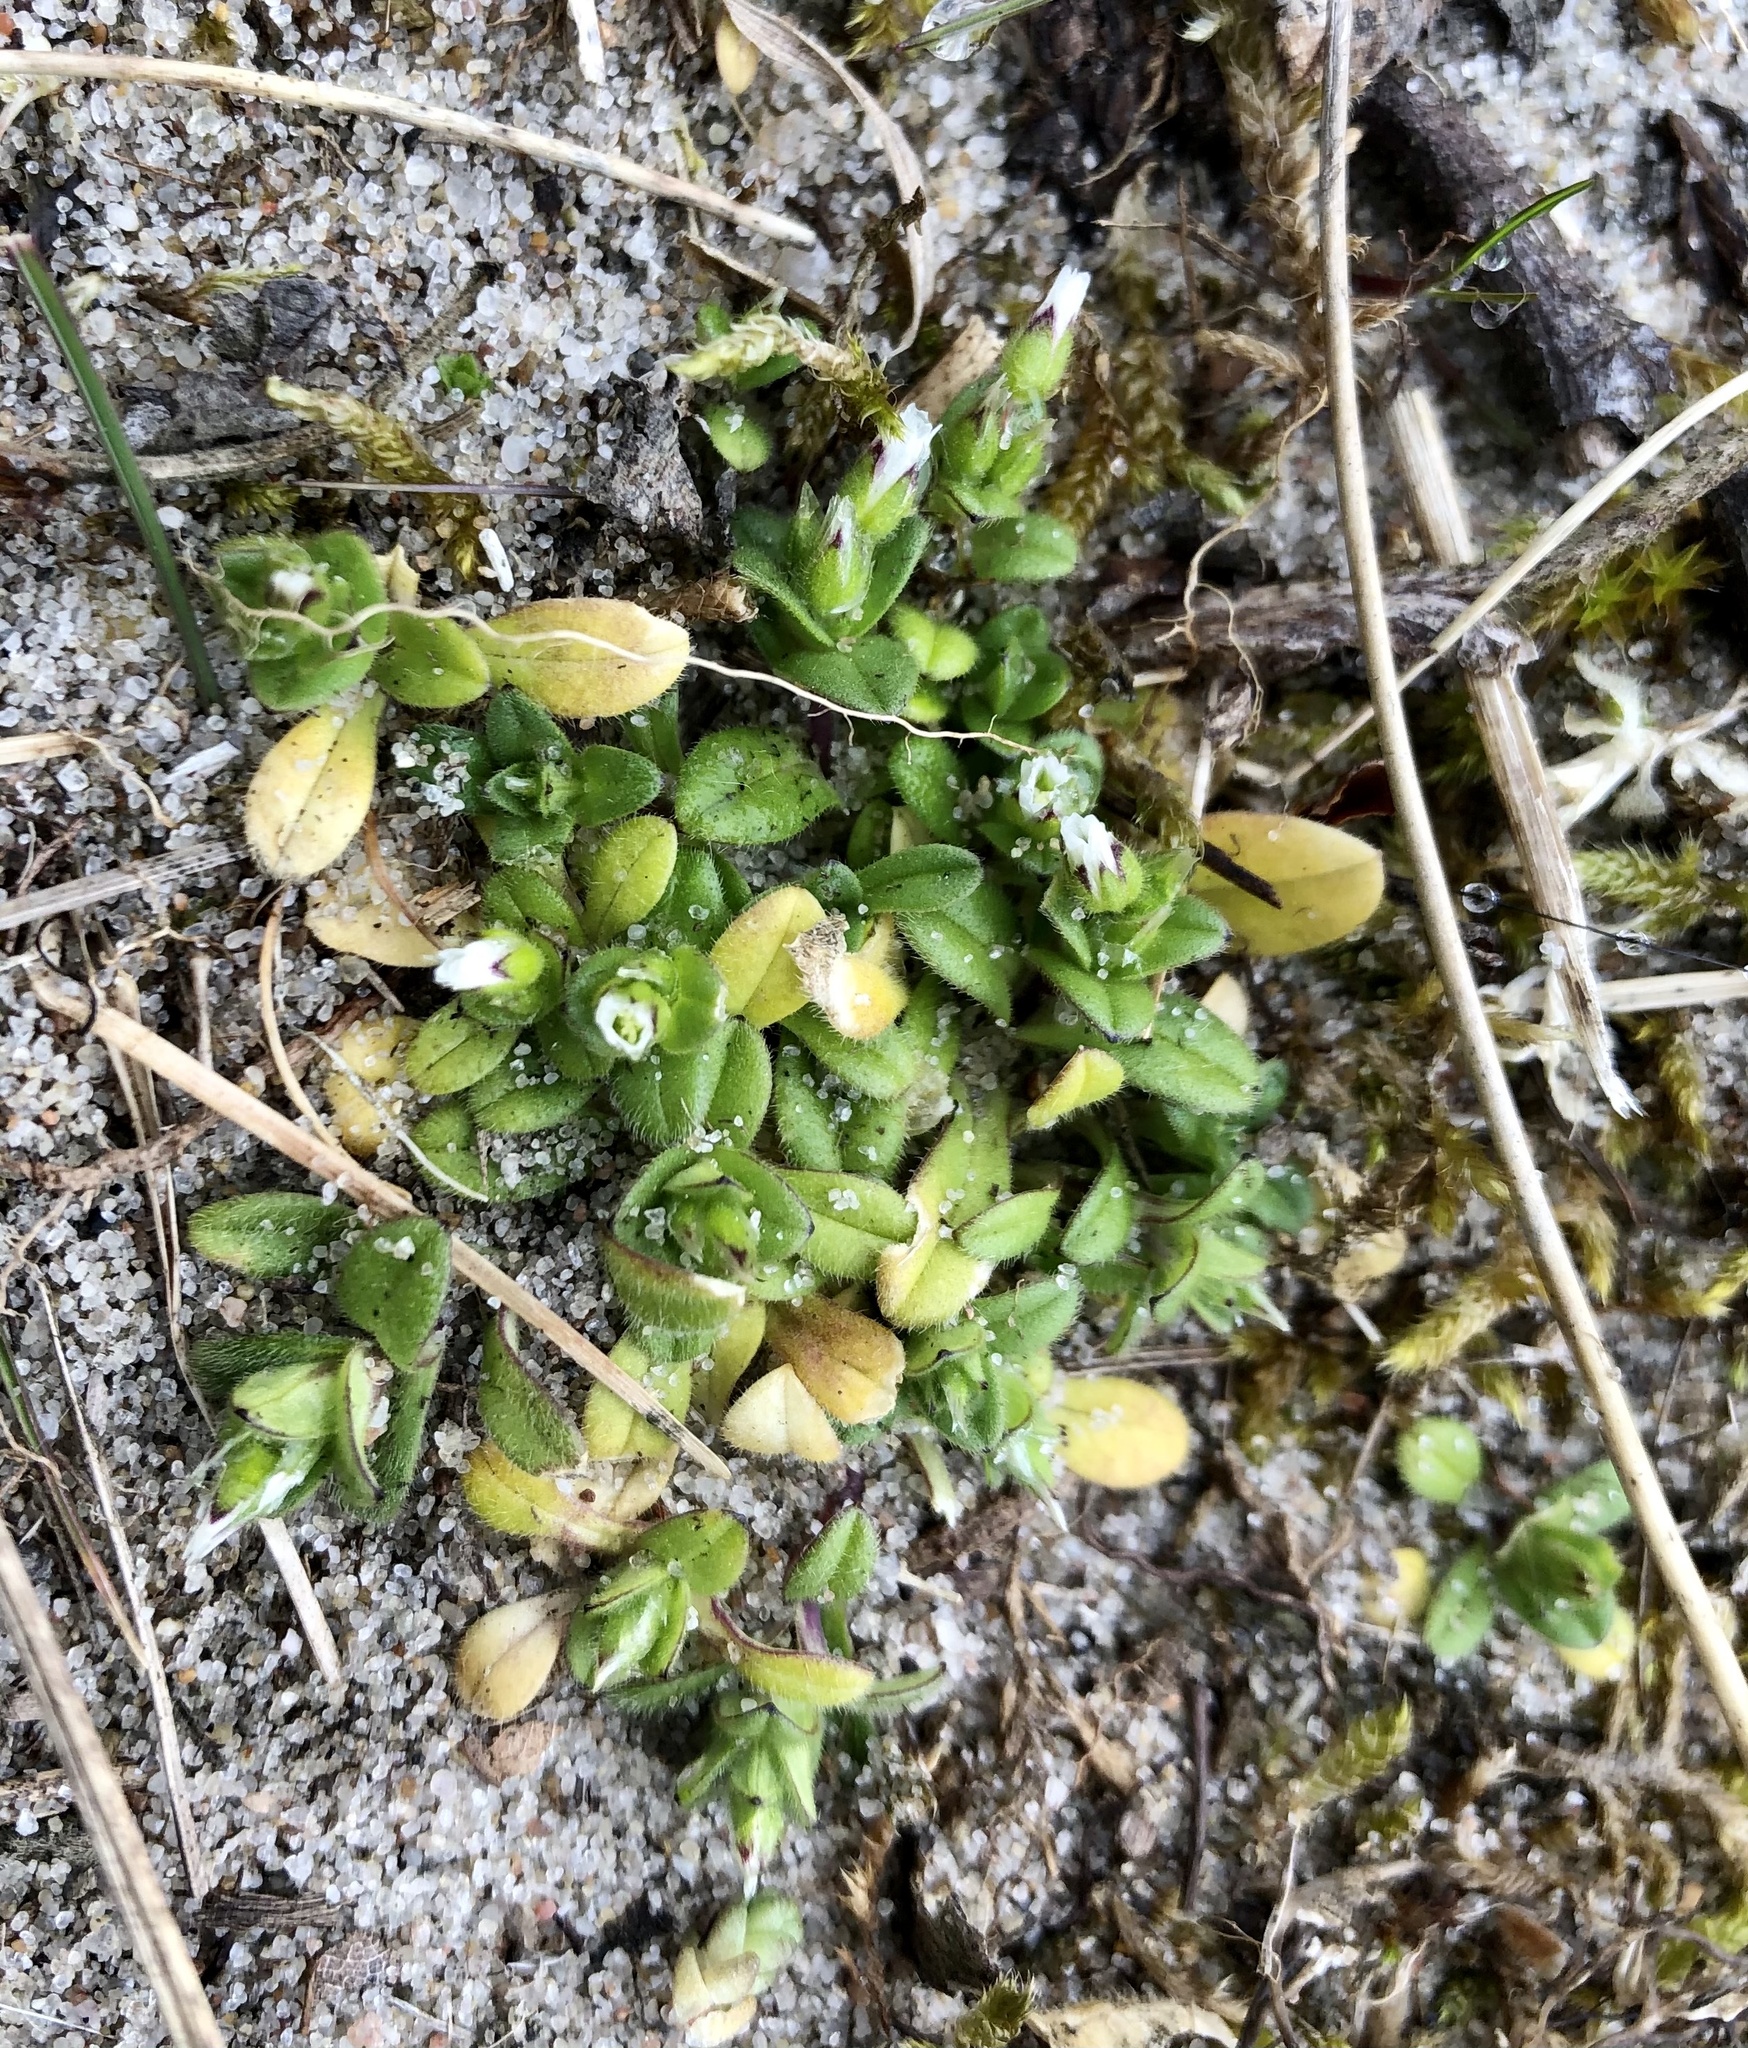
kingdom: Plantae
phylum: Tracheophyta
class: Magnoliopsida
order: Caryophyllales
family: Caryophyllaceae
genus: Cerastium
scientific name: Cerastium semidecandrum
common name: Little mouse-ear
